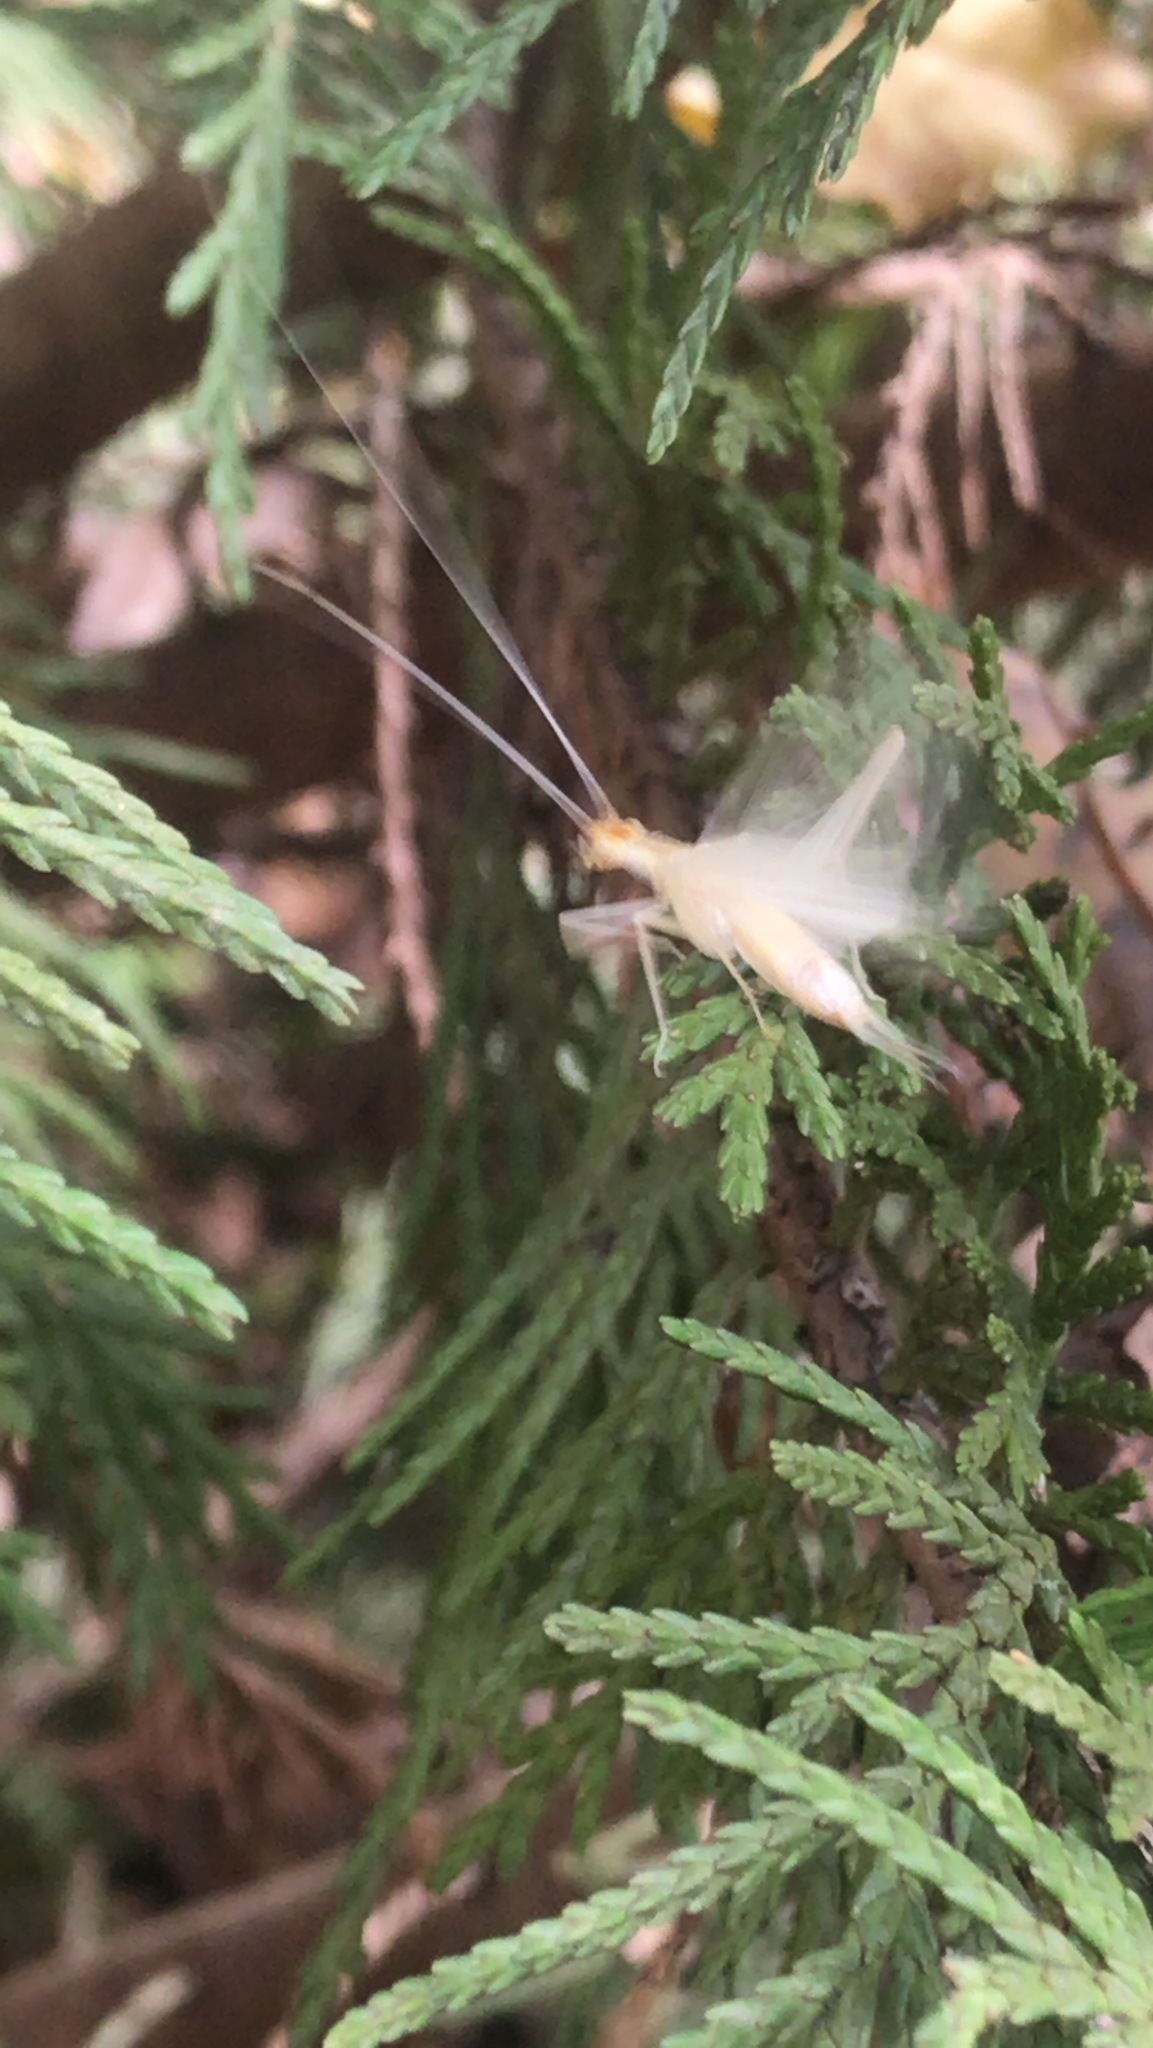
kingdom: Animalia
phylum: Arthropoda
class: Insecta
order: Orthoptera
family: Gryllidae
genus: Oecanthus
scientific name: Oecanthus
